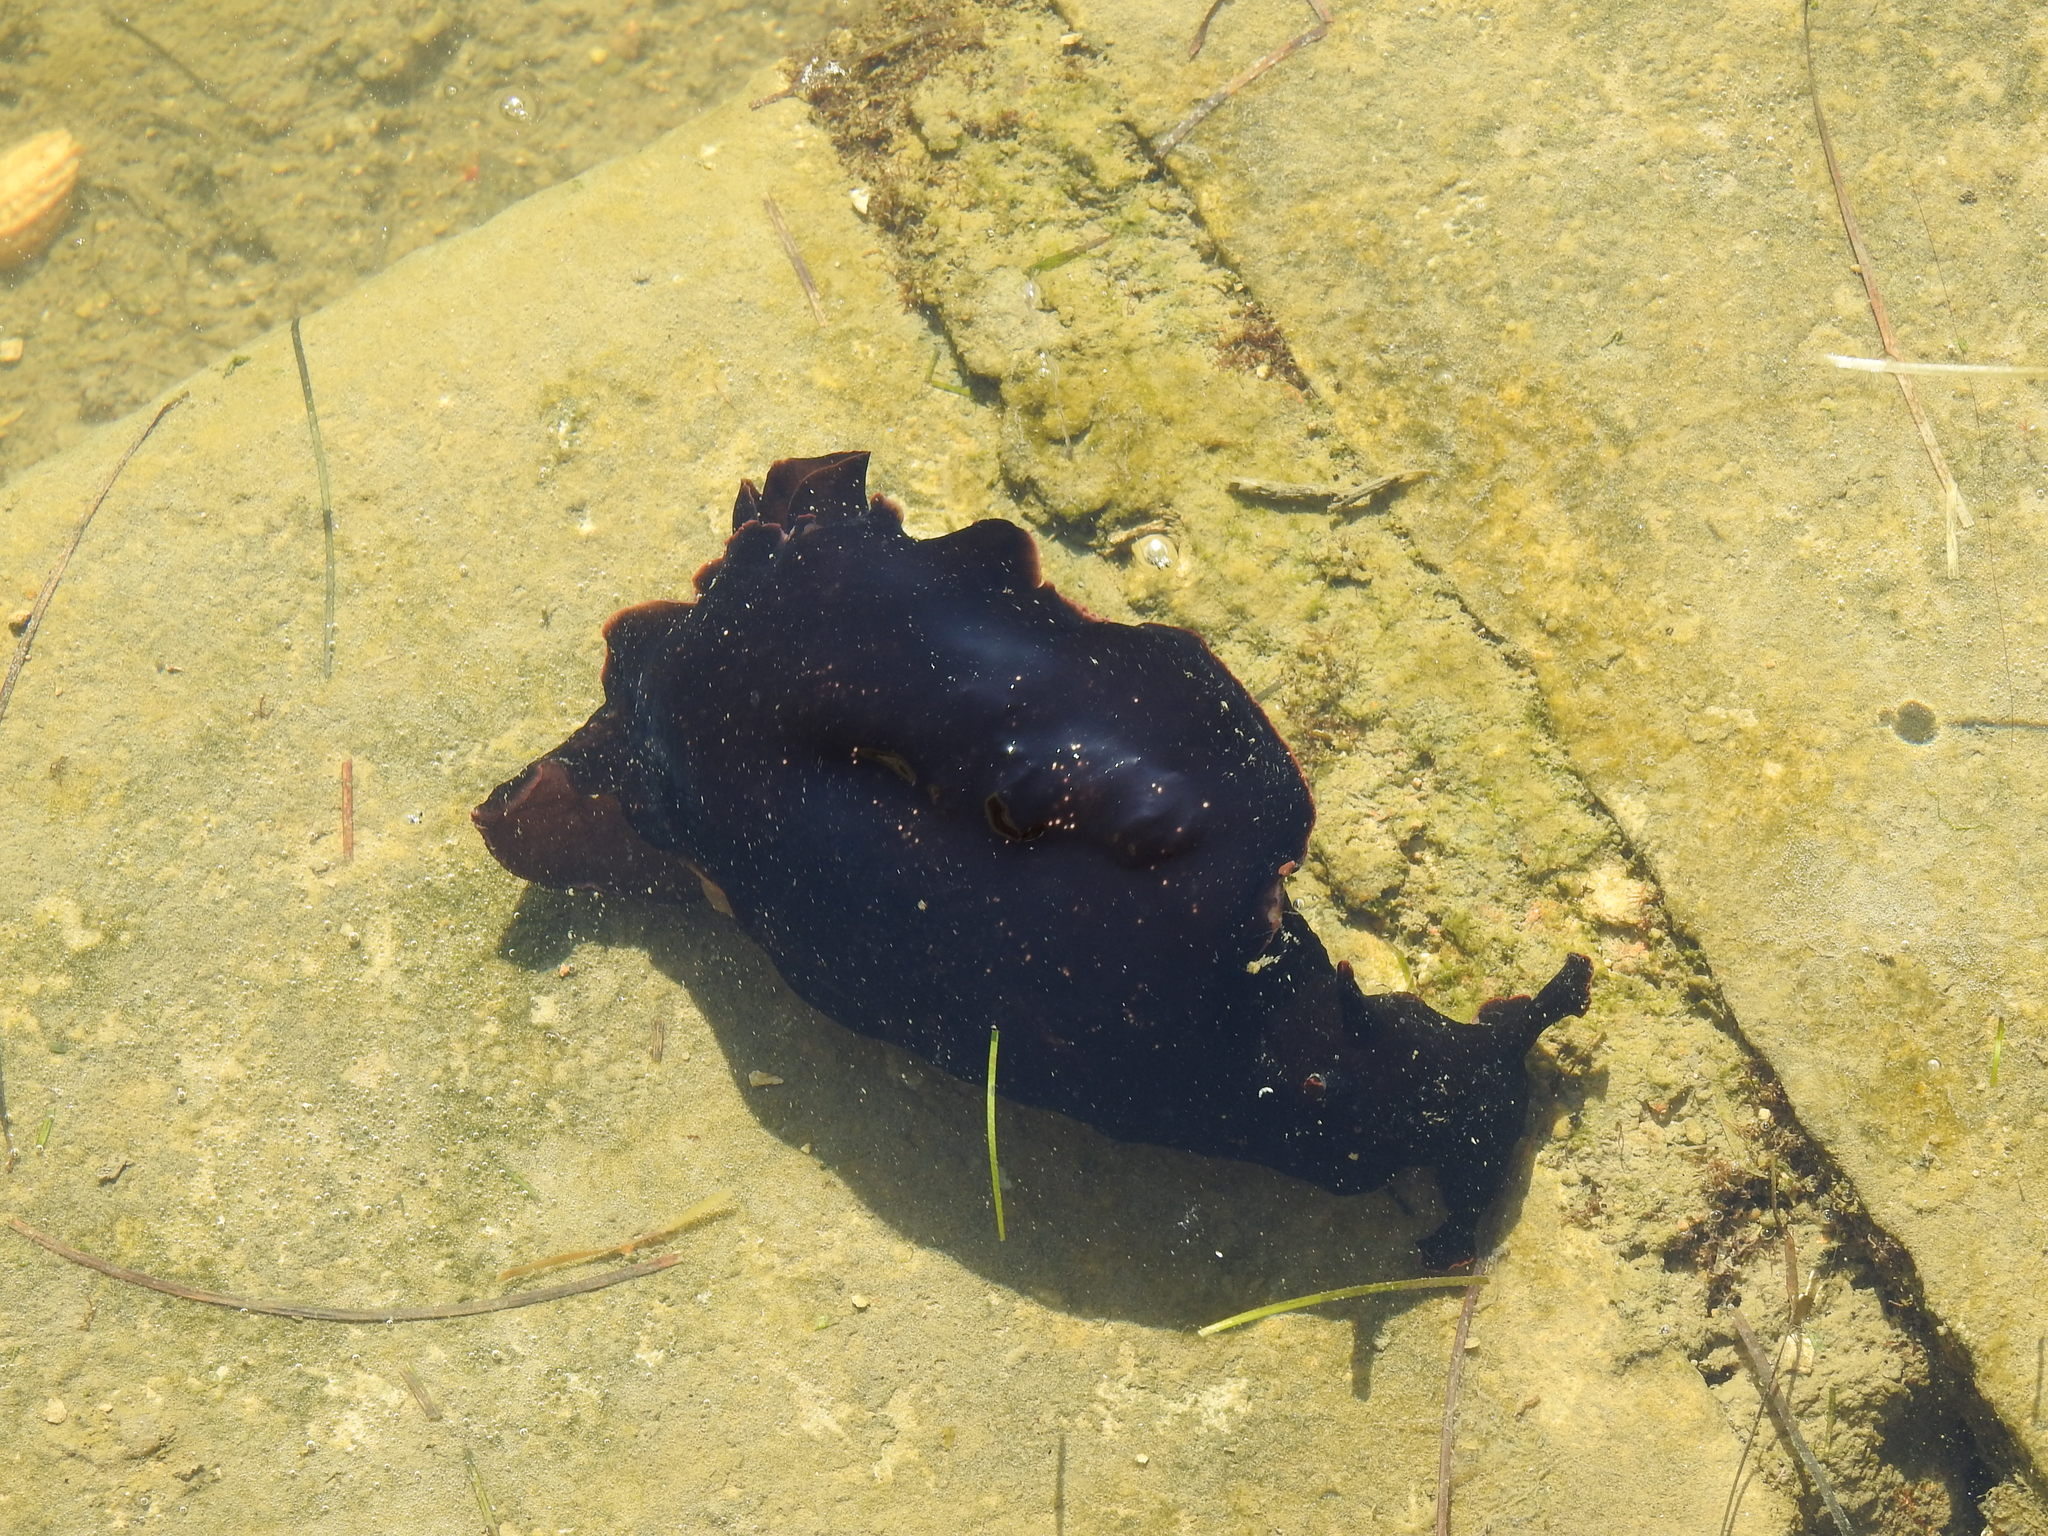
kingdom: Animalia
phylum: Mollusca
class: Gastropoda
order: Aplysiida
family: Aplysiidae
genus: Aplysia
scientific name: Aplysia fasciata
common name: Banded sea hare
